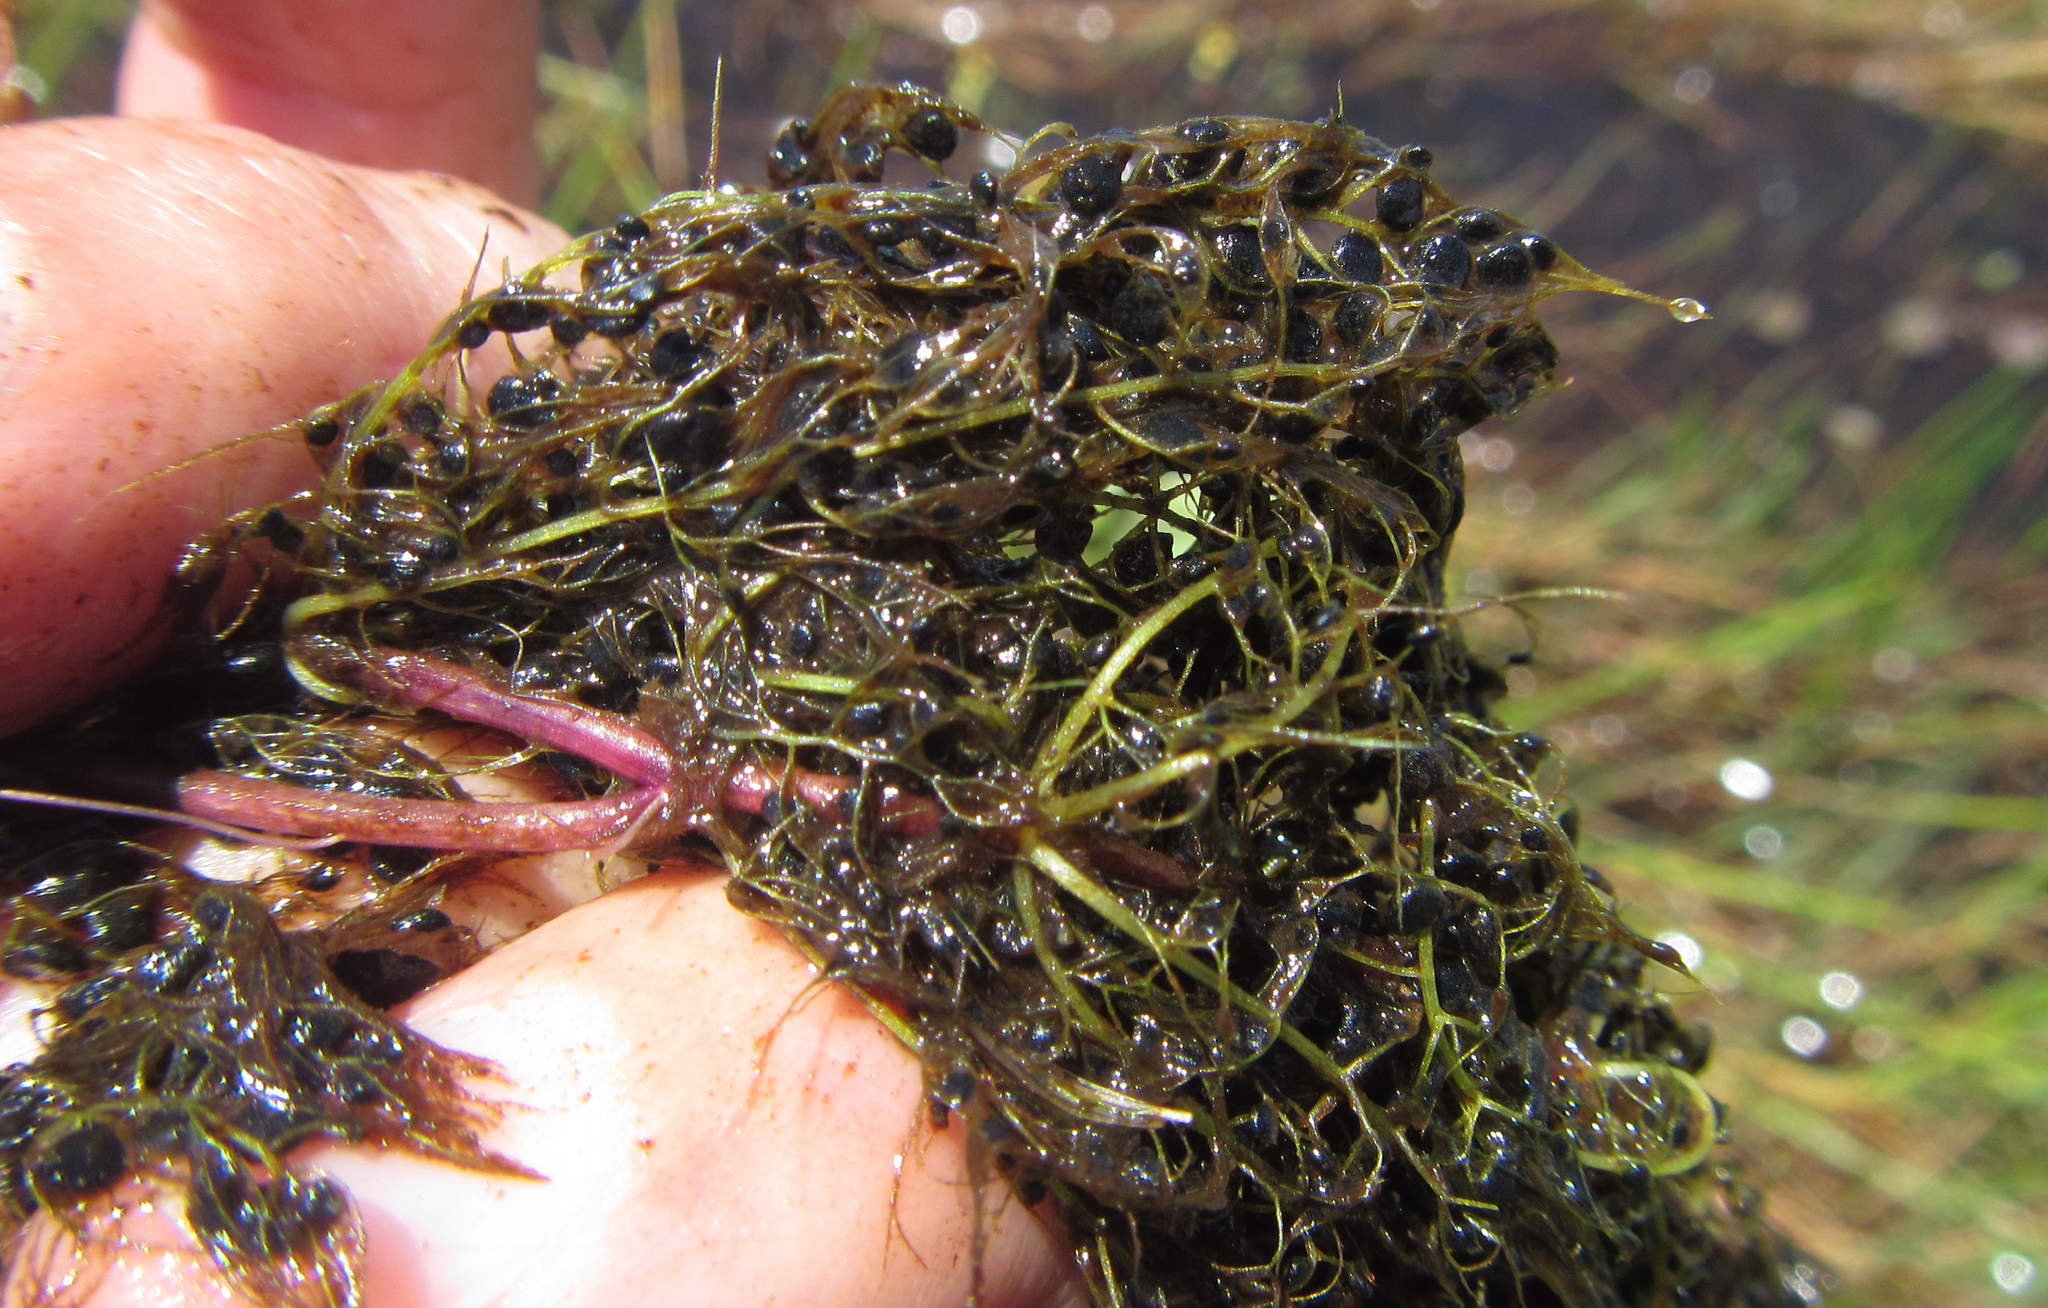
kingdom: Plantae
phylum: Tracheophyta
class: Magnoliopsida
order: Lamiales
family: Lentibulariaceae
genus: Utricularia
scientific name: Utricularia stellaris
